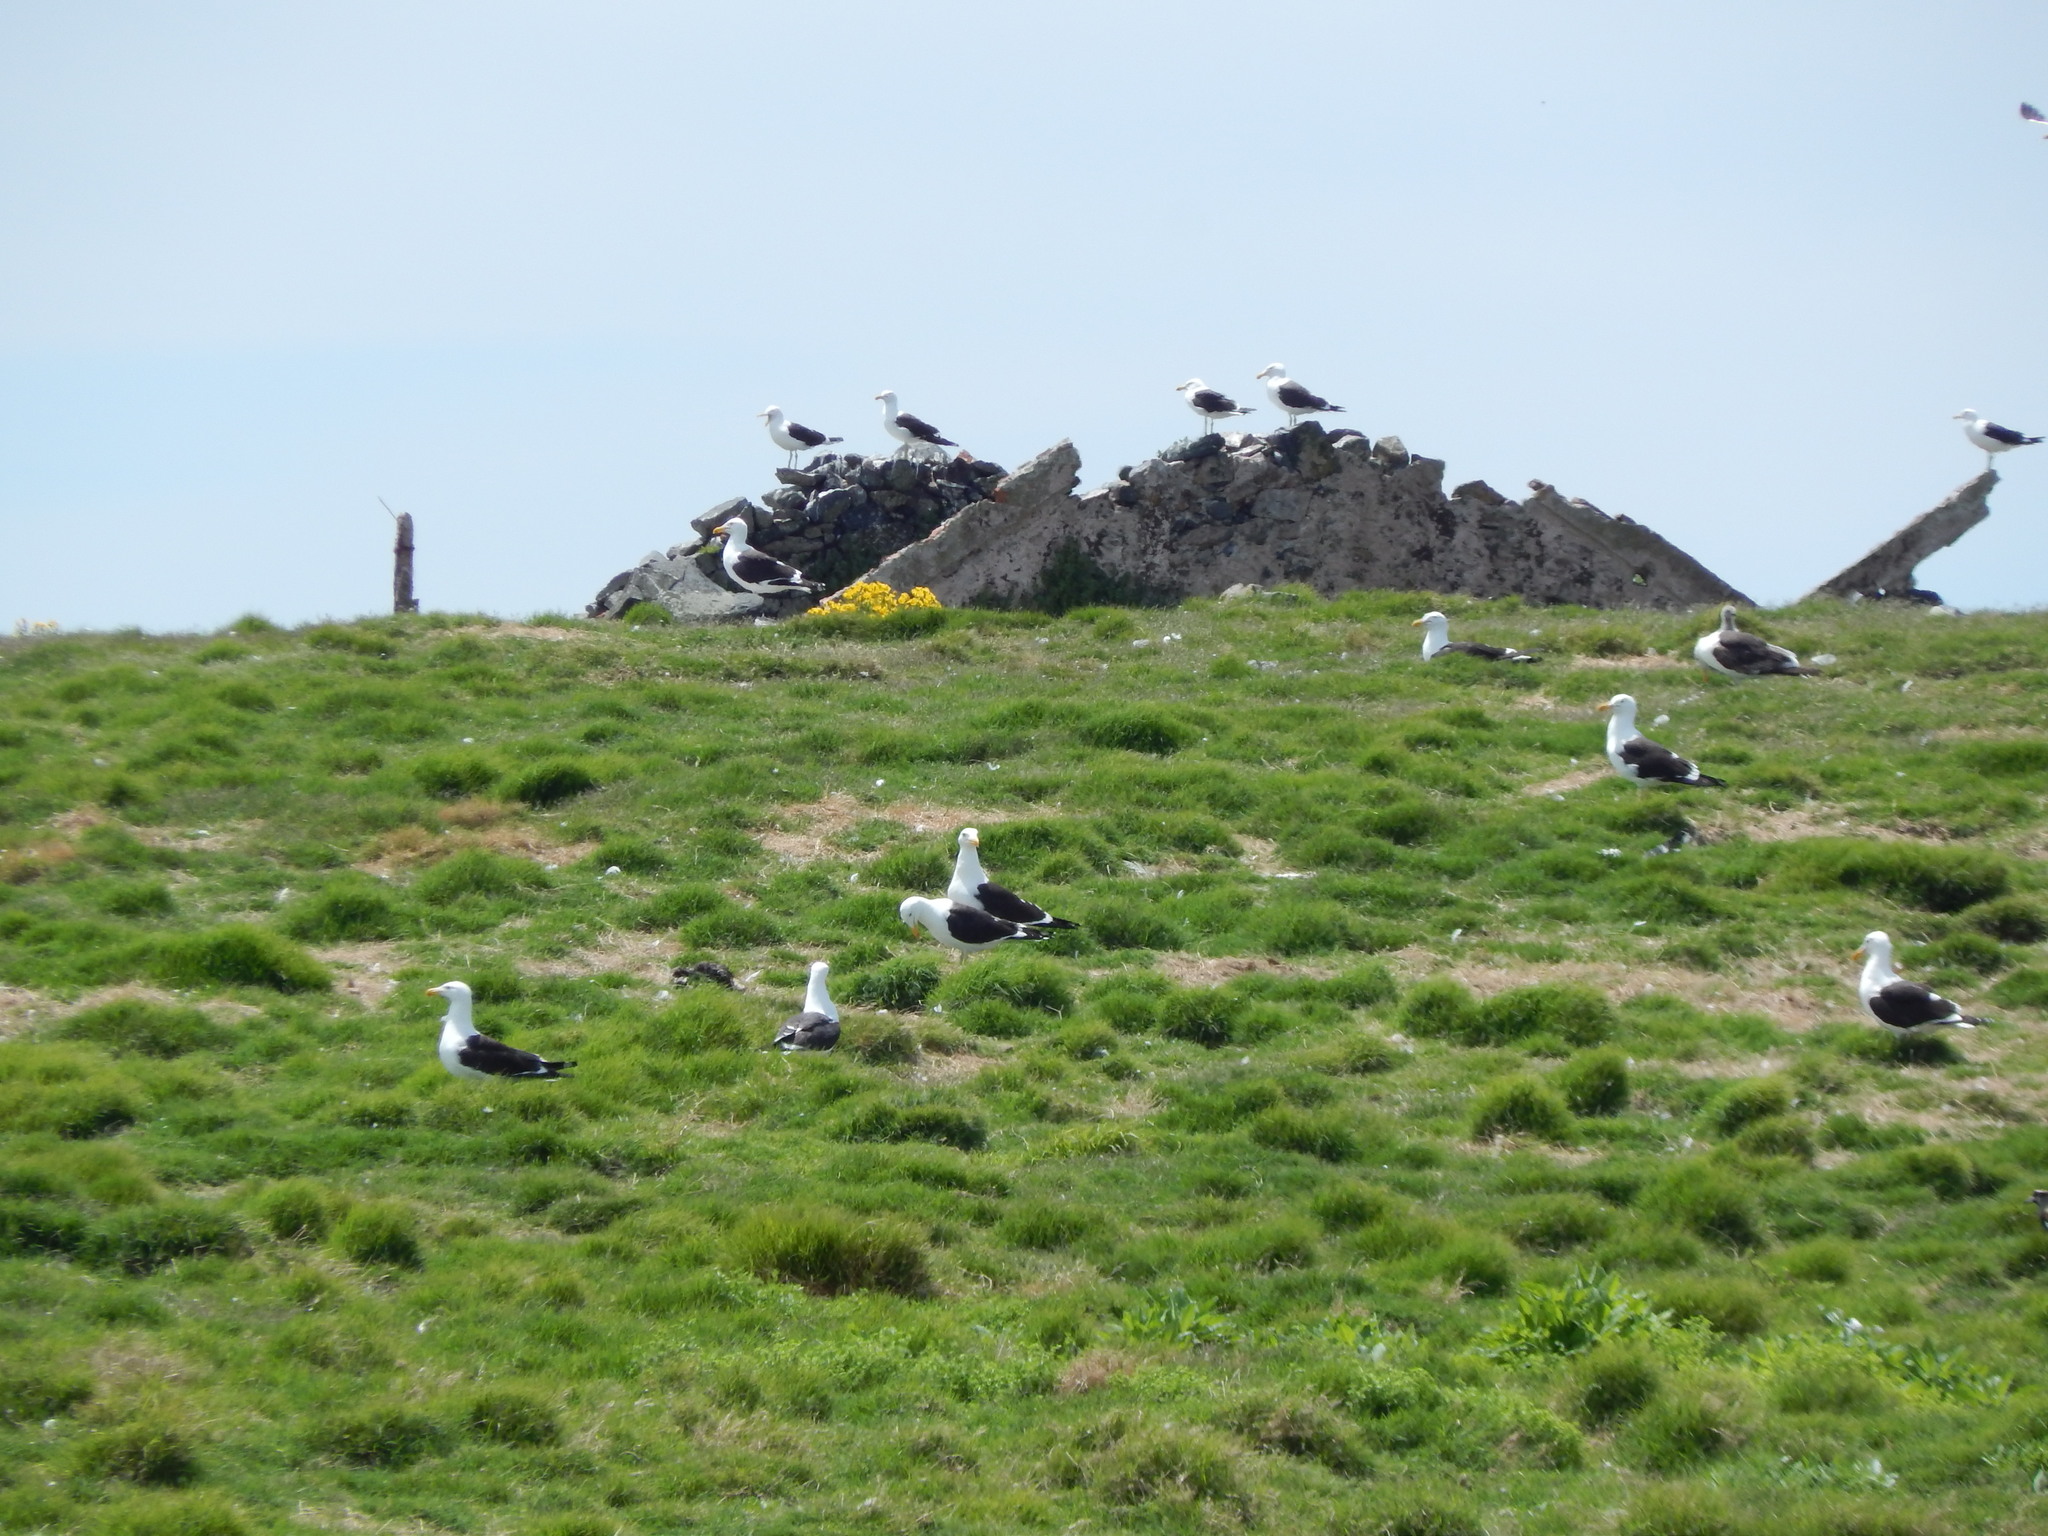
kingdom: Animalia
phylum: Chordata
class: Aves
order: Charadriiformes
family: Laridae
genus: Larus
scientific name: Larus dominicanus
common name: Kelp gull
